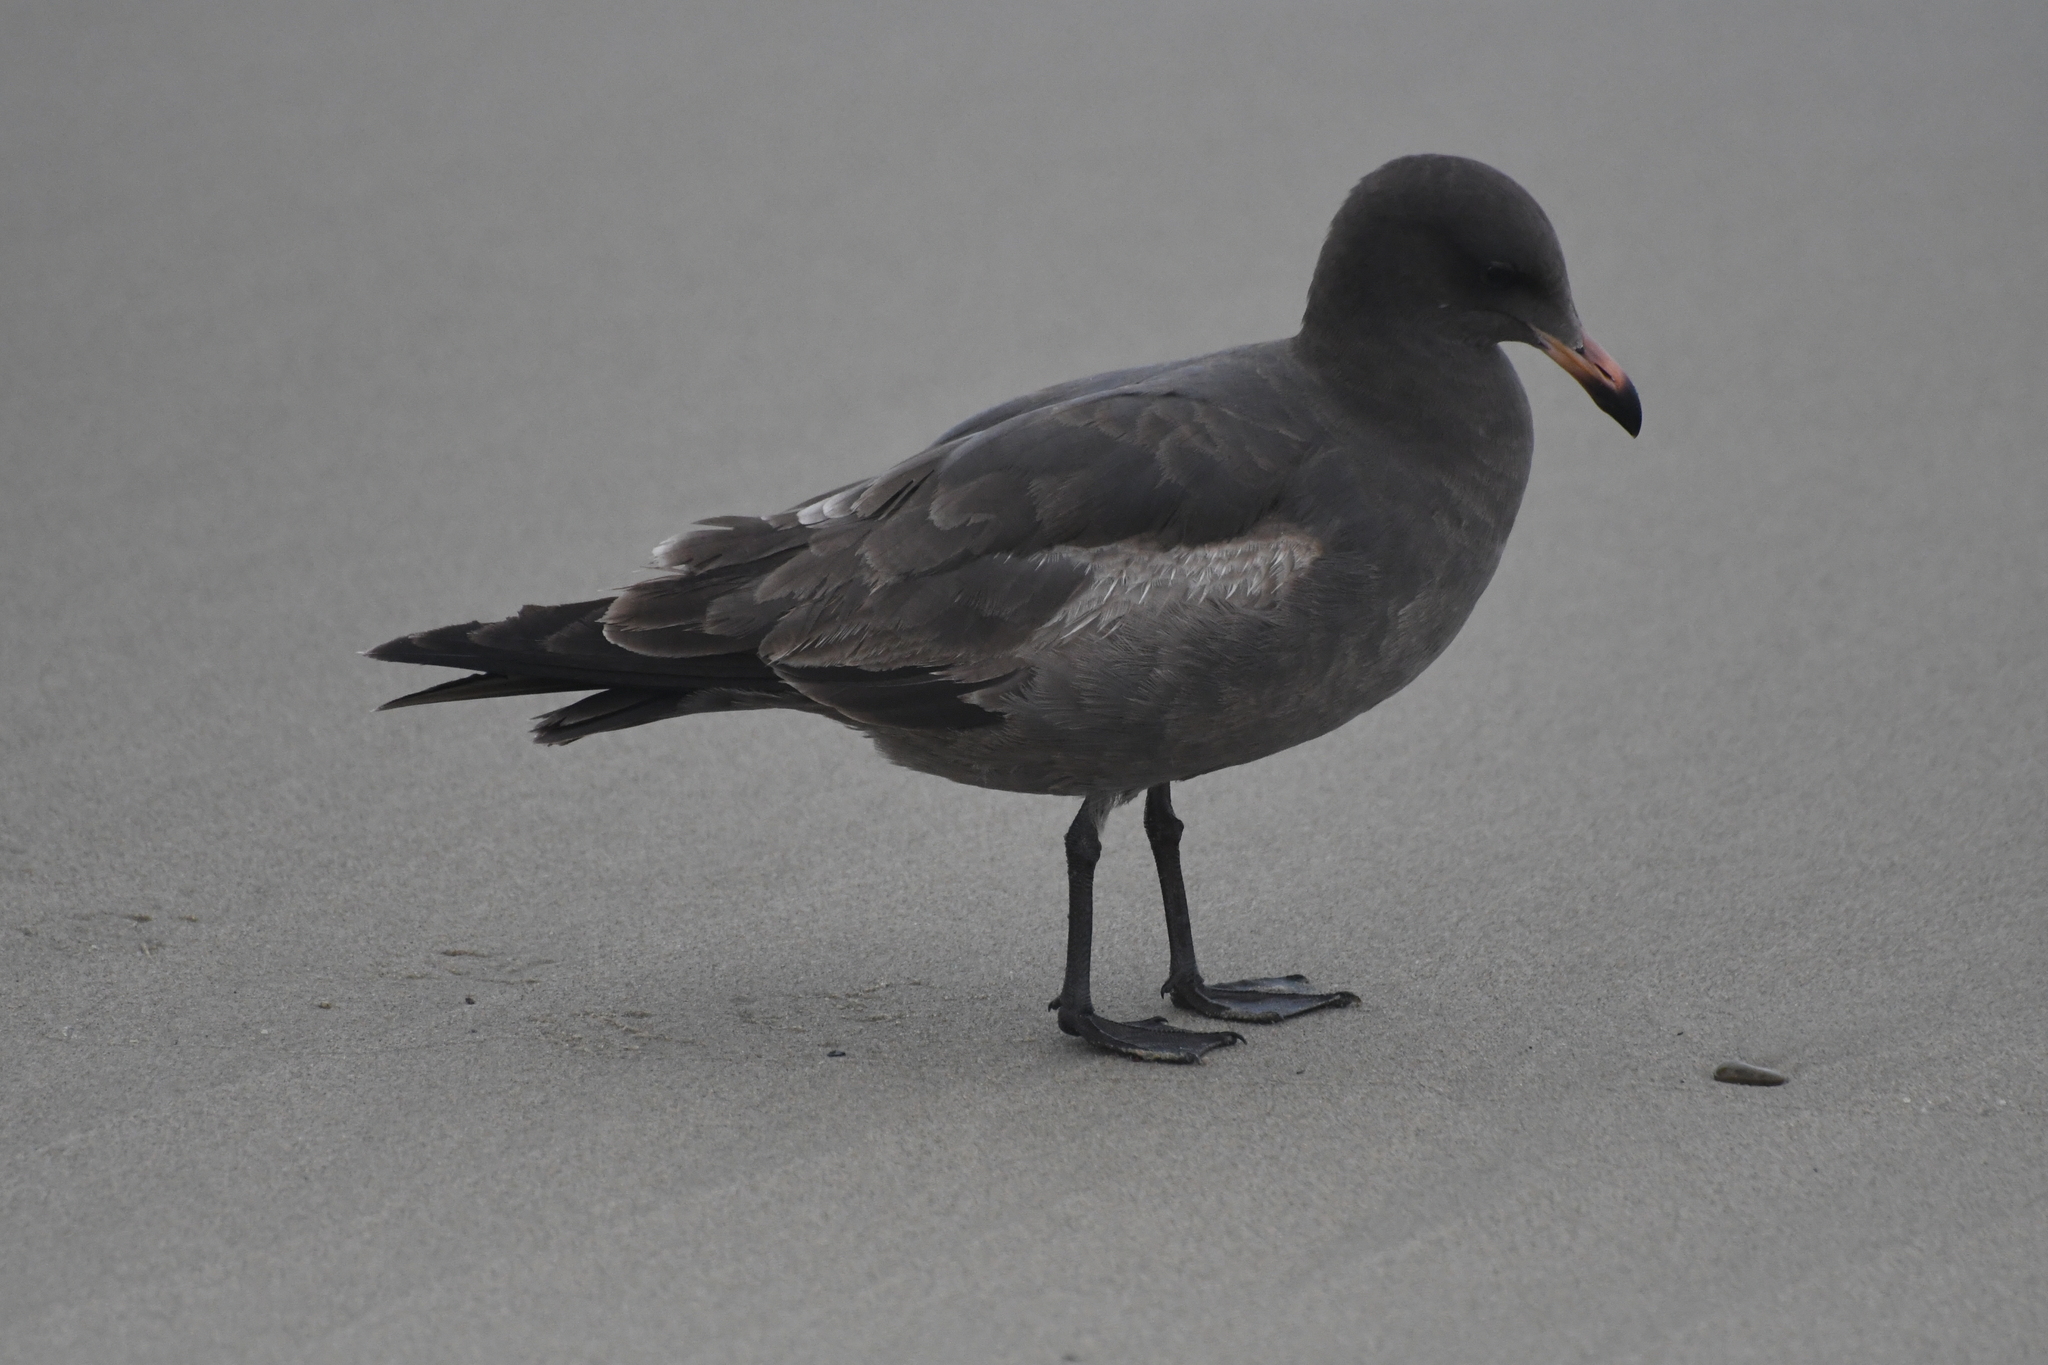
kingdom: Animalia
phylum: Chordata
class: Aves
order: Charadriiformes
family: Laridae
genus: Larus
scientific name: Larus heermanni
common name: Heermann's gull
